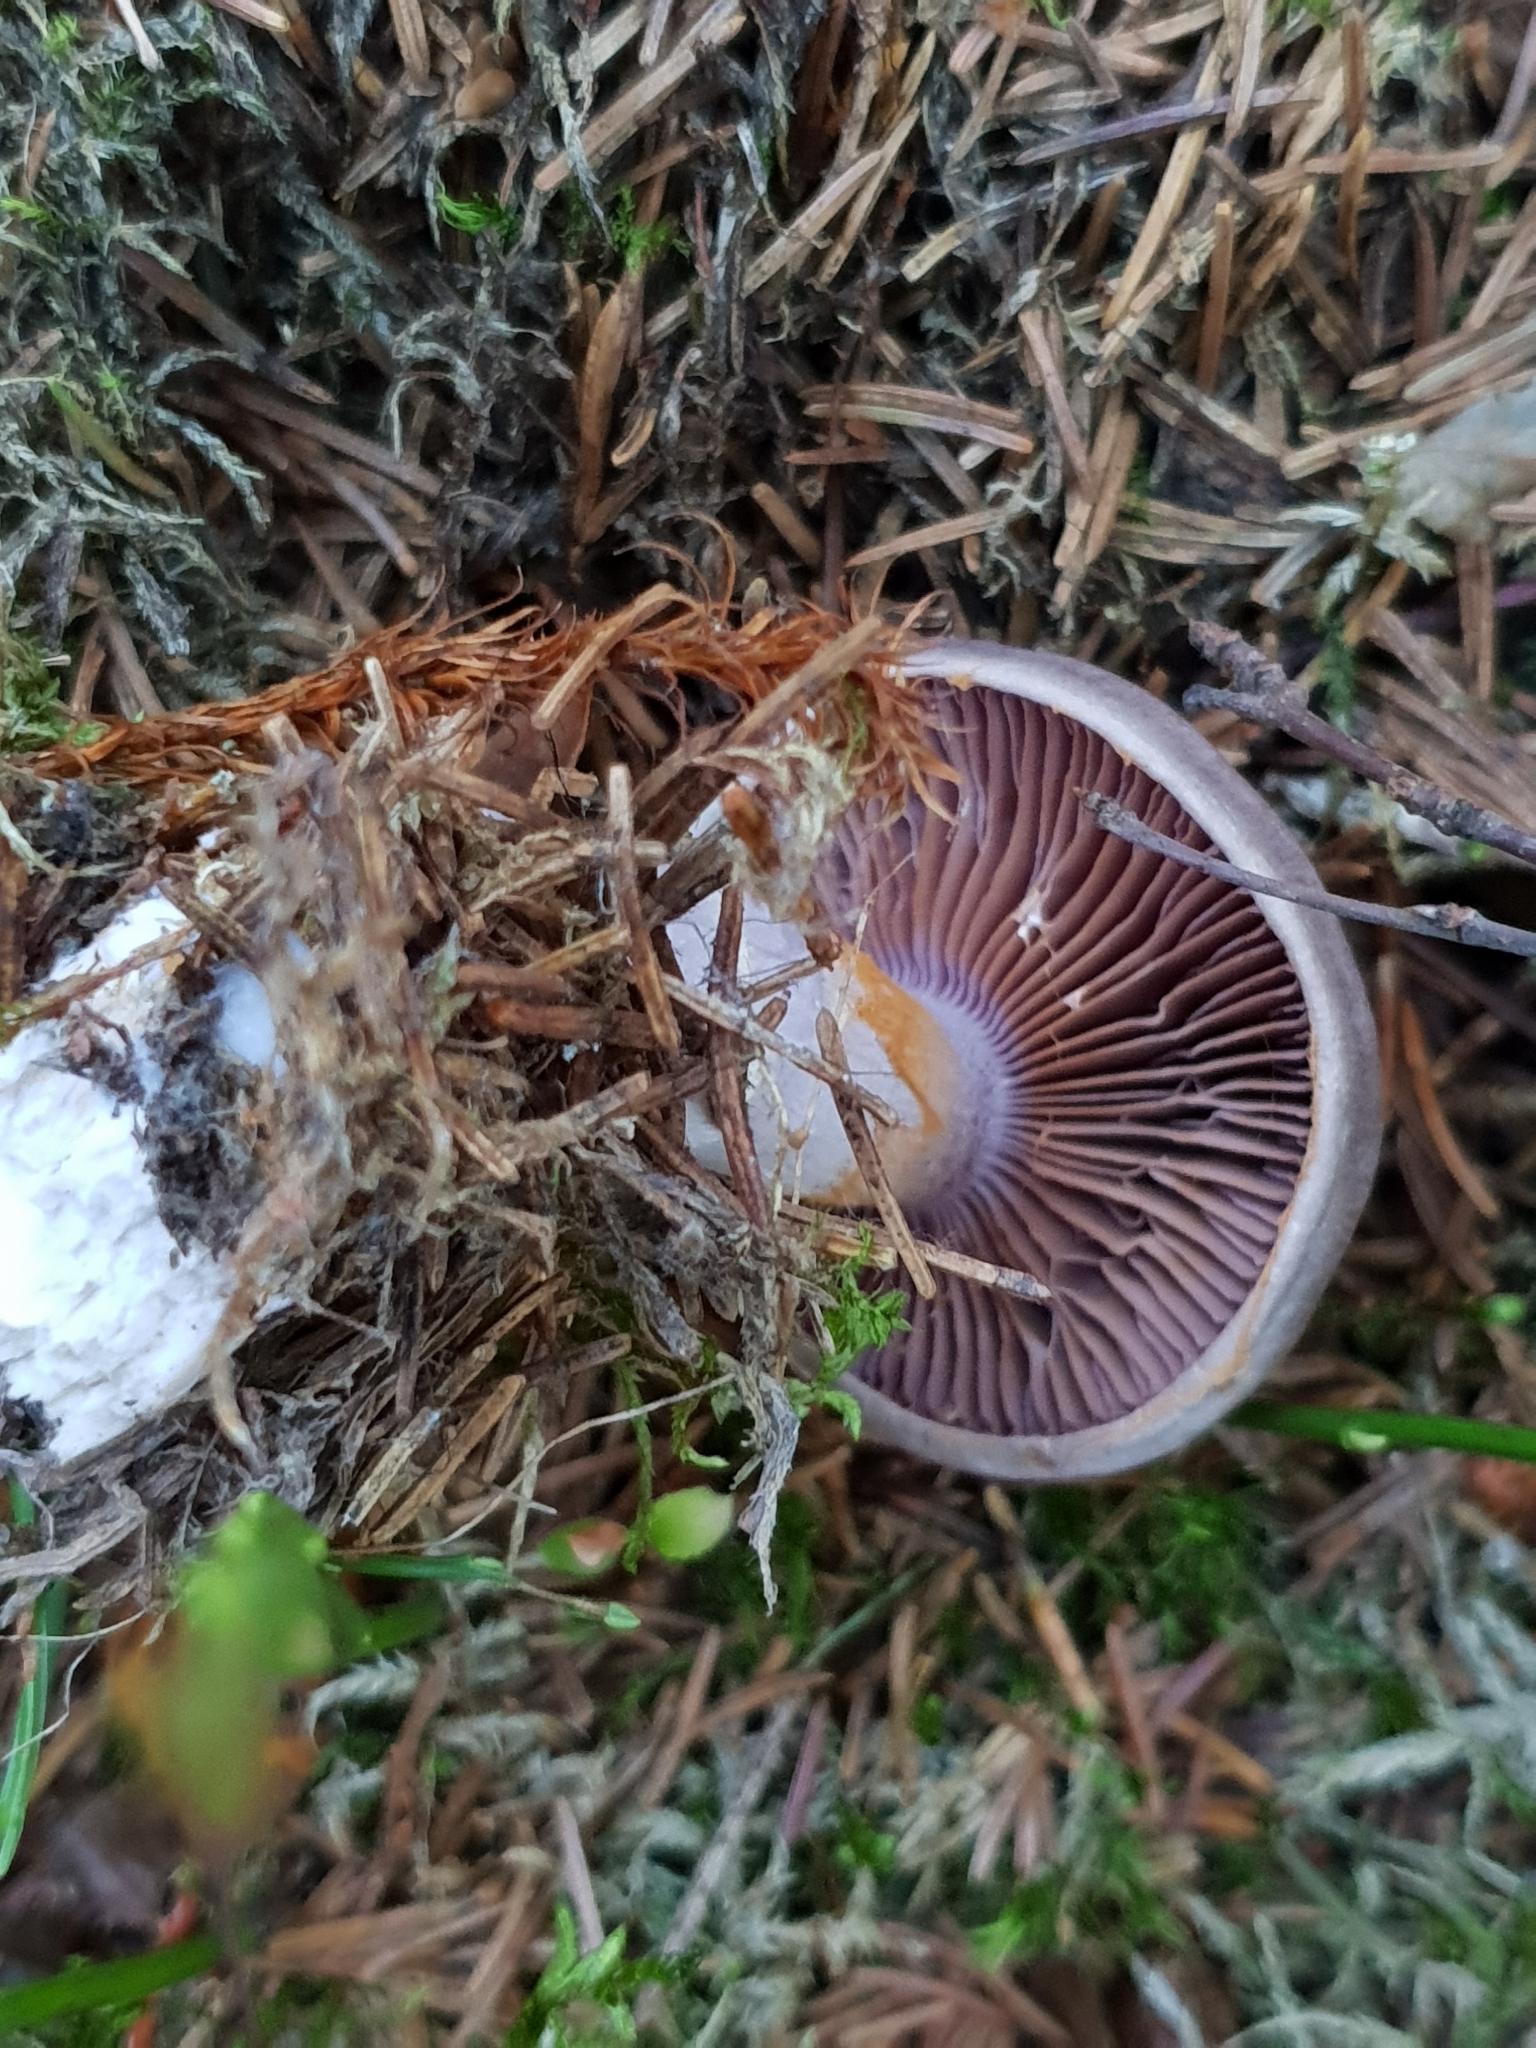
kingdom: Fungi
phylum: Basidiomycota
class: Agaricomycetes
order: Agaricales
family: Cortinariaceae
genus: Cortinarius
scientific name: Cortinarius evernius
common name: Silky webcap
